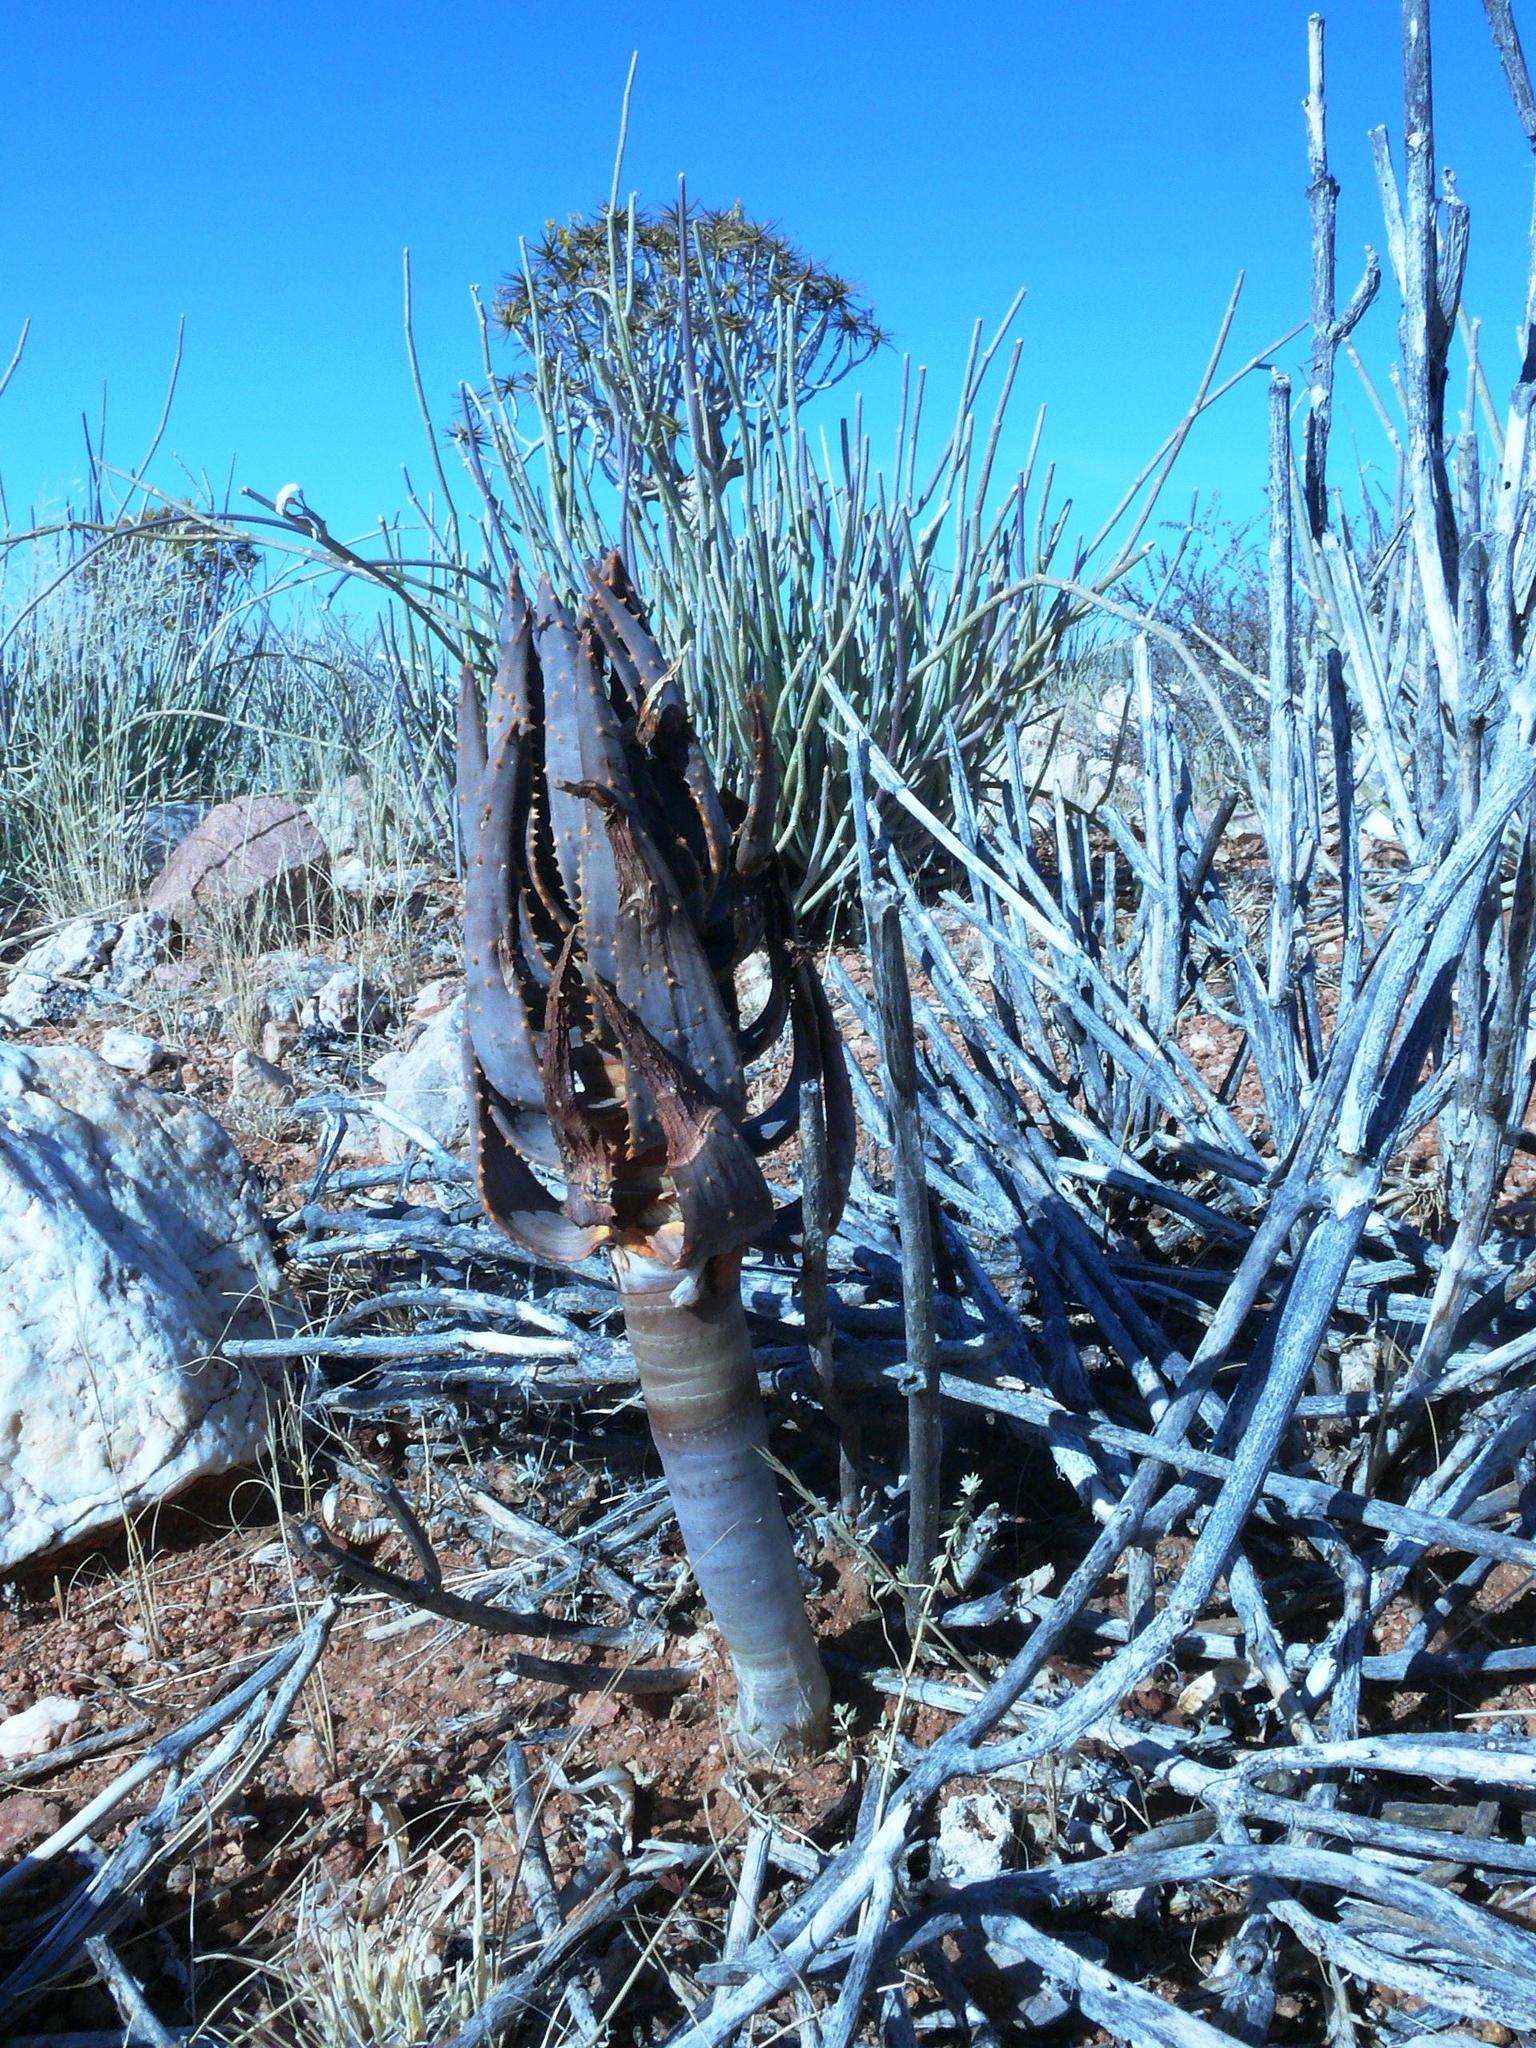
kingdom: Plantae
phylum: Tracheophyta
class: Liliopsida
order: Asparagales
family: Asphodelaceae
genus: Aloidendron
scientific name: Aloidendron dichotomum
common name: Quiver tree
